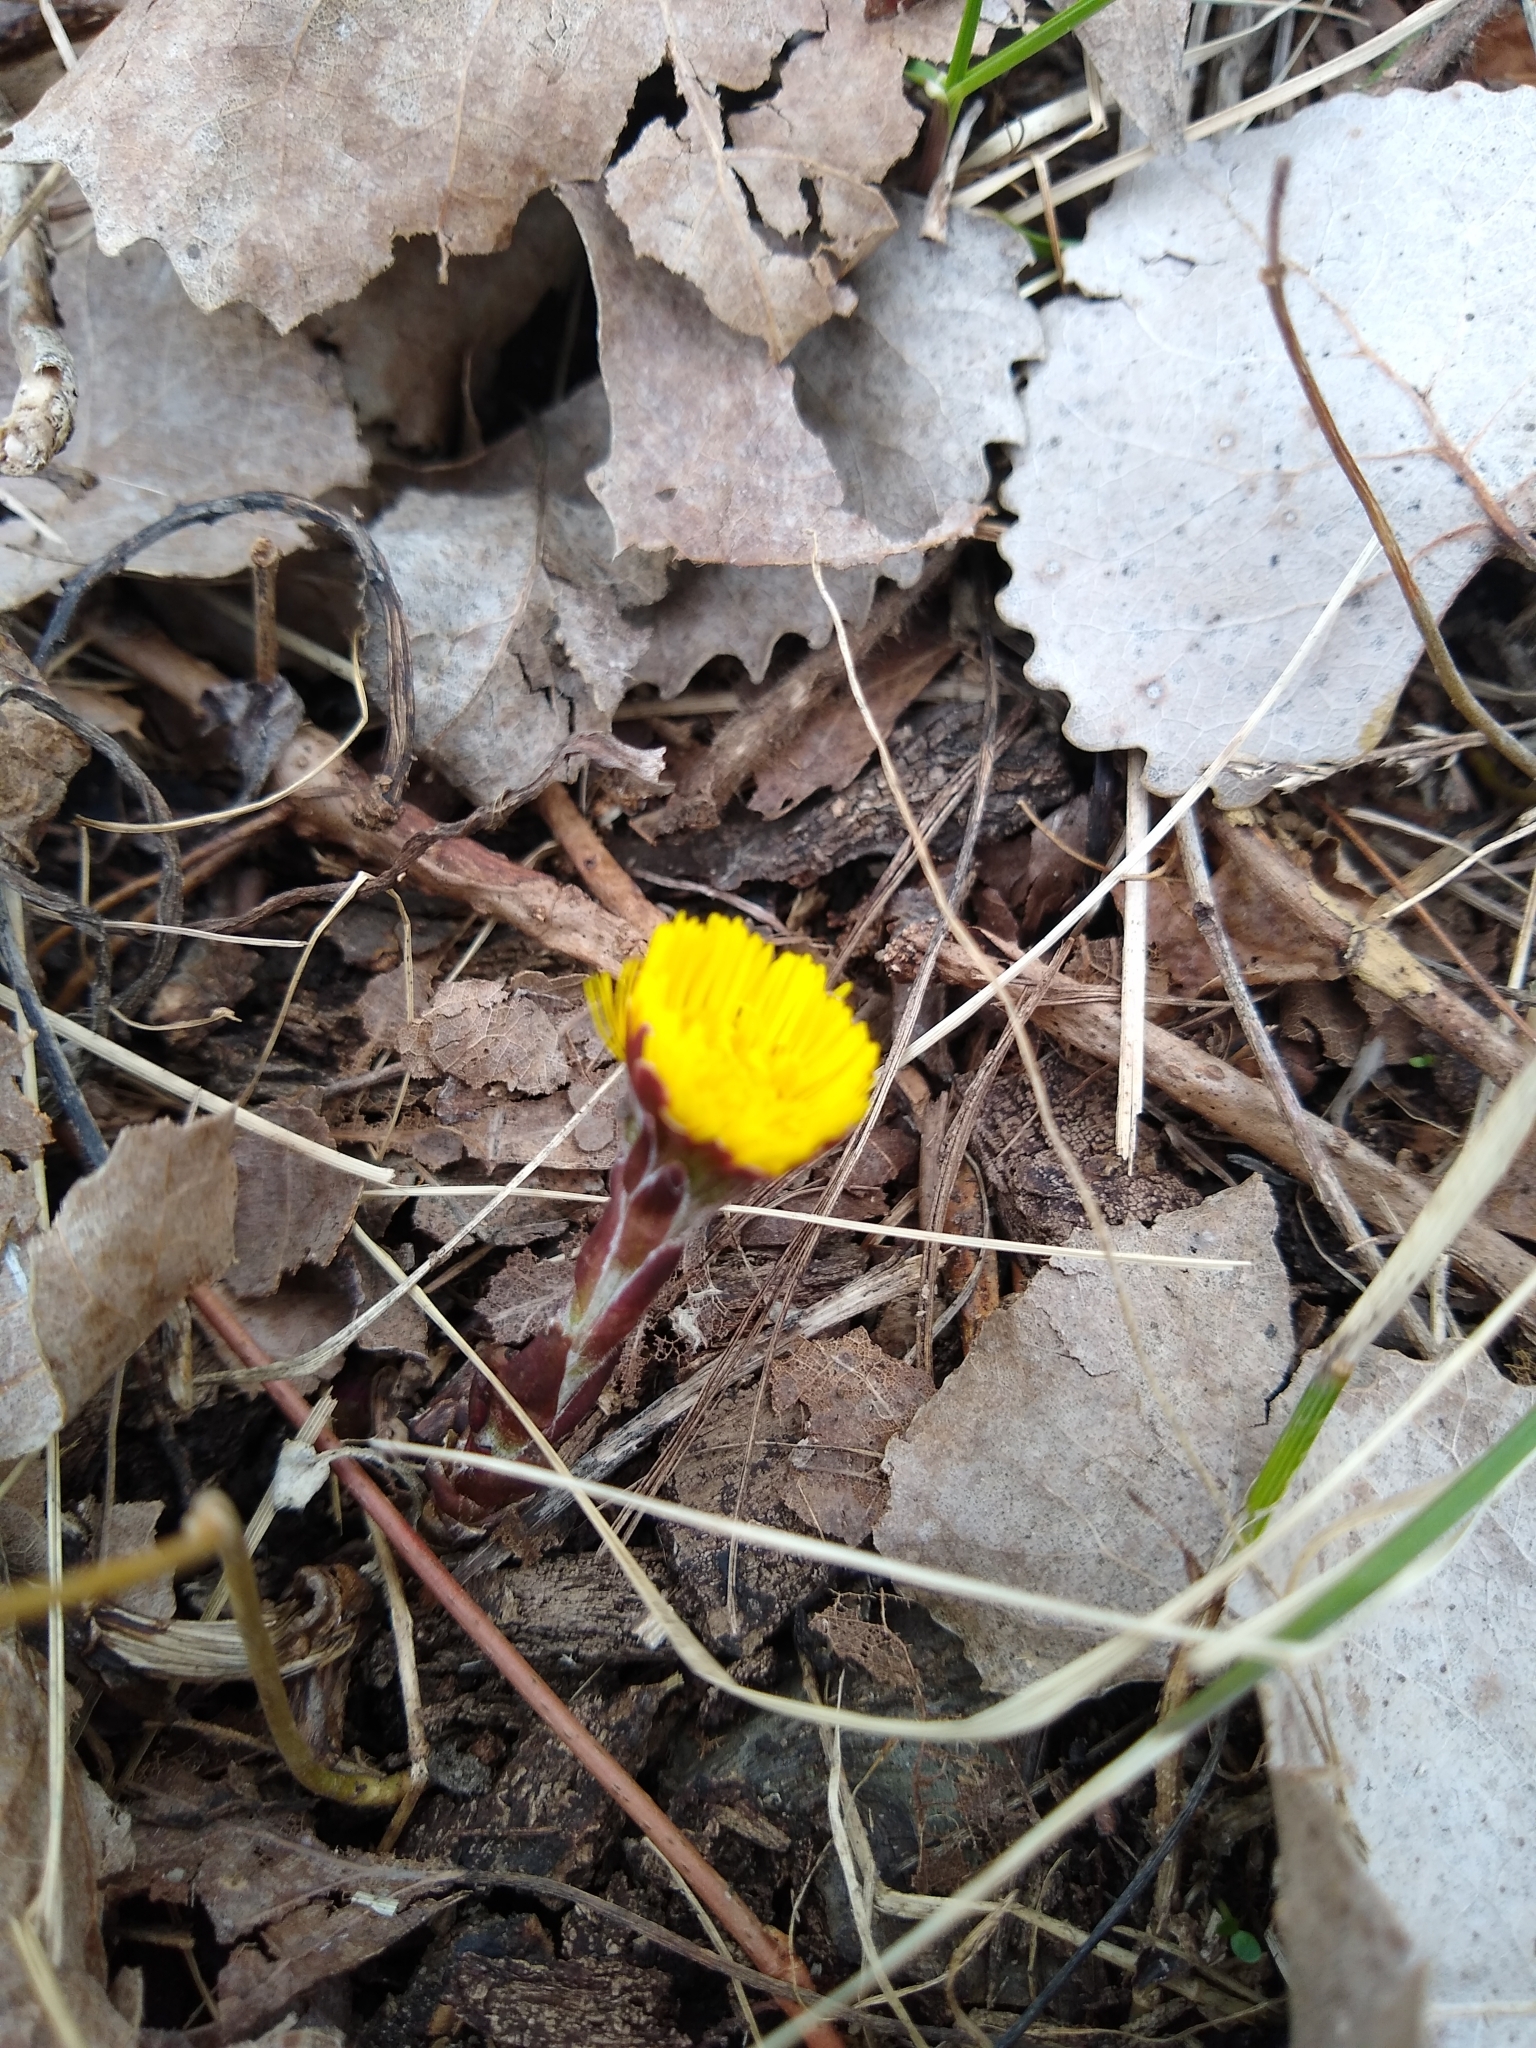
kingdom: Plantae
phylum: Tracheophyta
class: Magnoliopsida
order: Asterales
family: Asteraceae
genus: Tussilago
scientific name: Tussilago farfara
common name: Coltsfoot
